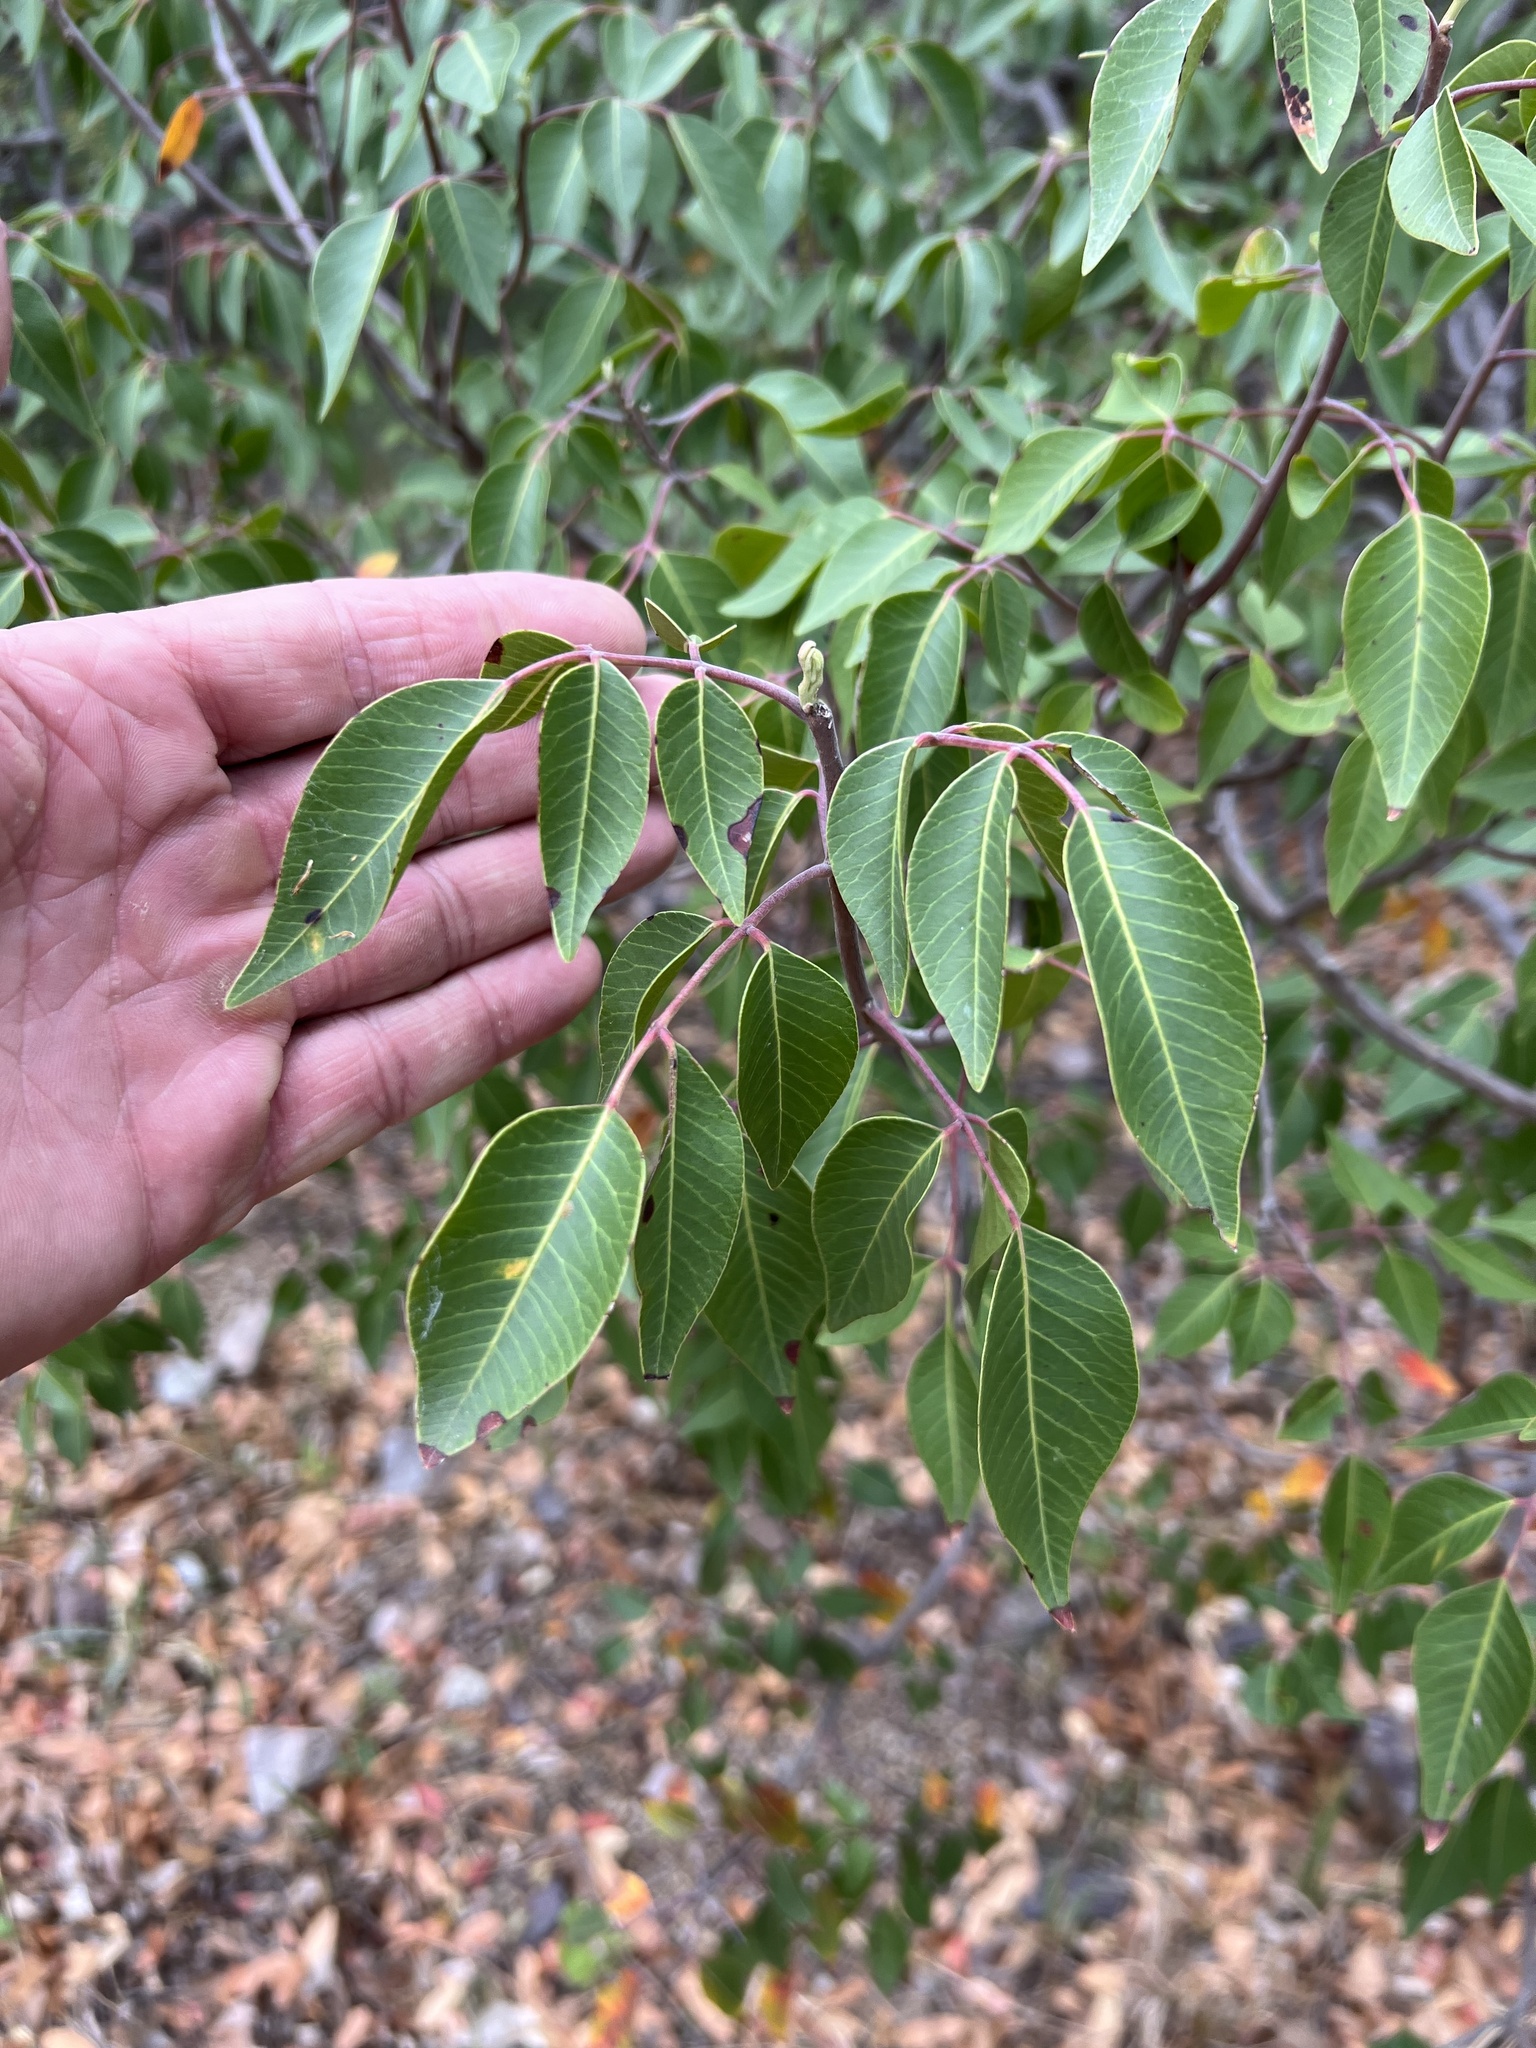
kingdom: Plantae
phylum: Tracheophyta
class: Magnoliopsida
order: Sapindales
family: Anacardiaceae
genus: Rhus
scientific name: Rhus virens
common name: Evergreen sumac
